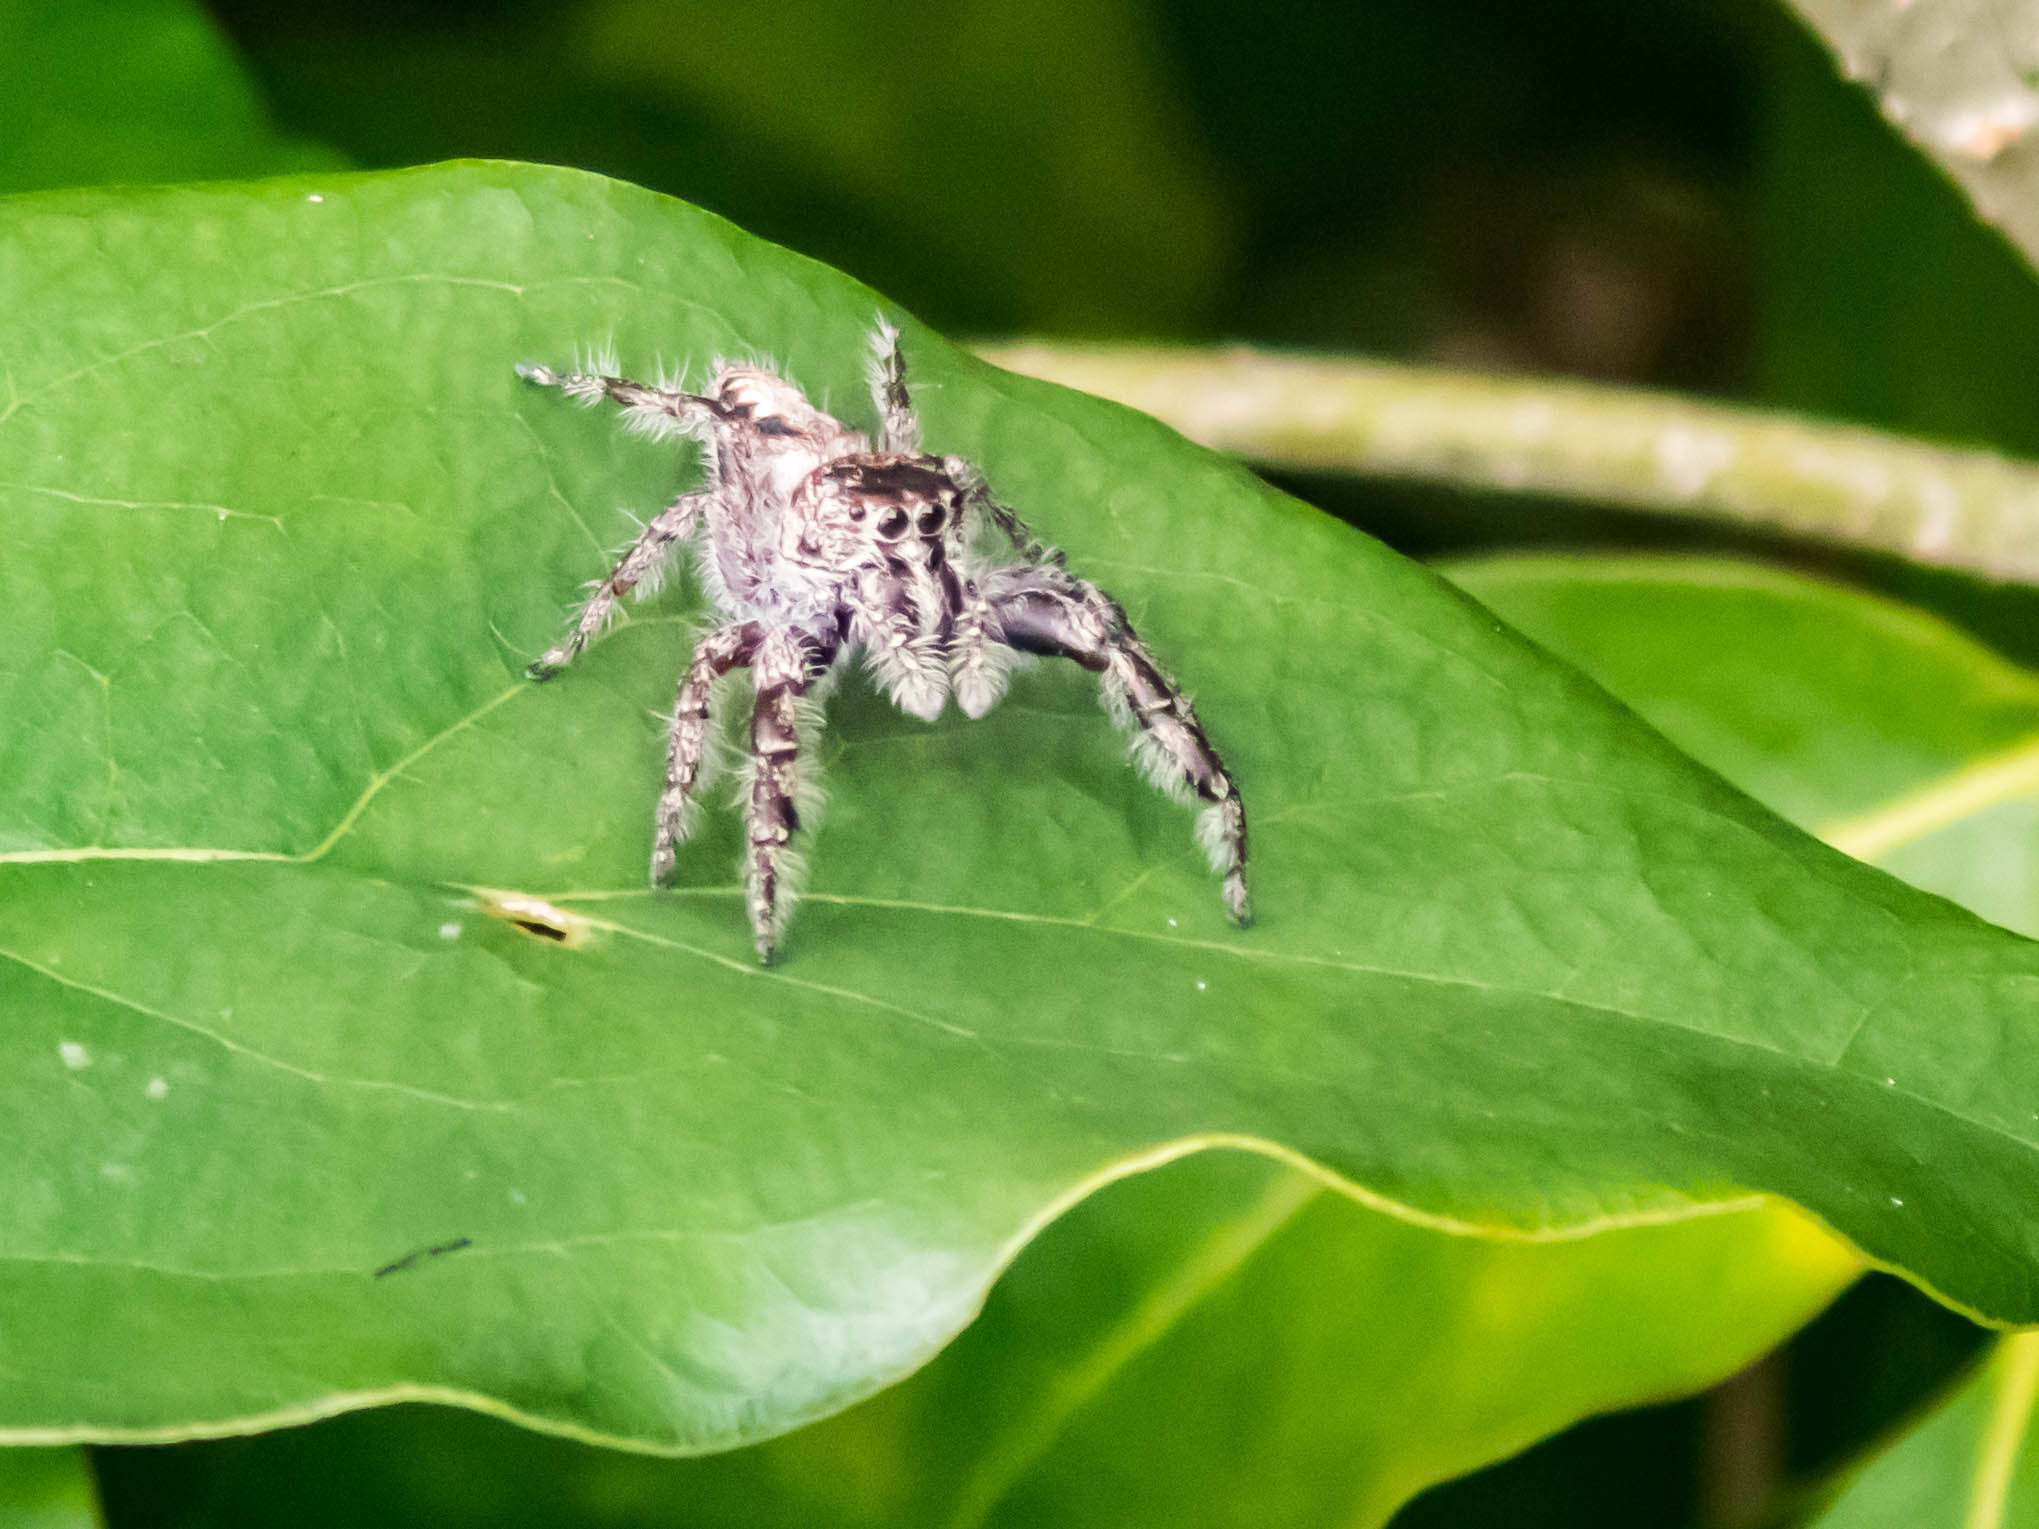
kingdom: Animalia
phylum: Arthropoda
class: Arachnida
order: Araneae
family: Salticidae
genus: Sandalodes
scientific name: Sandalodes superbus
